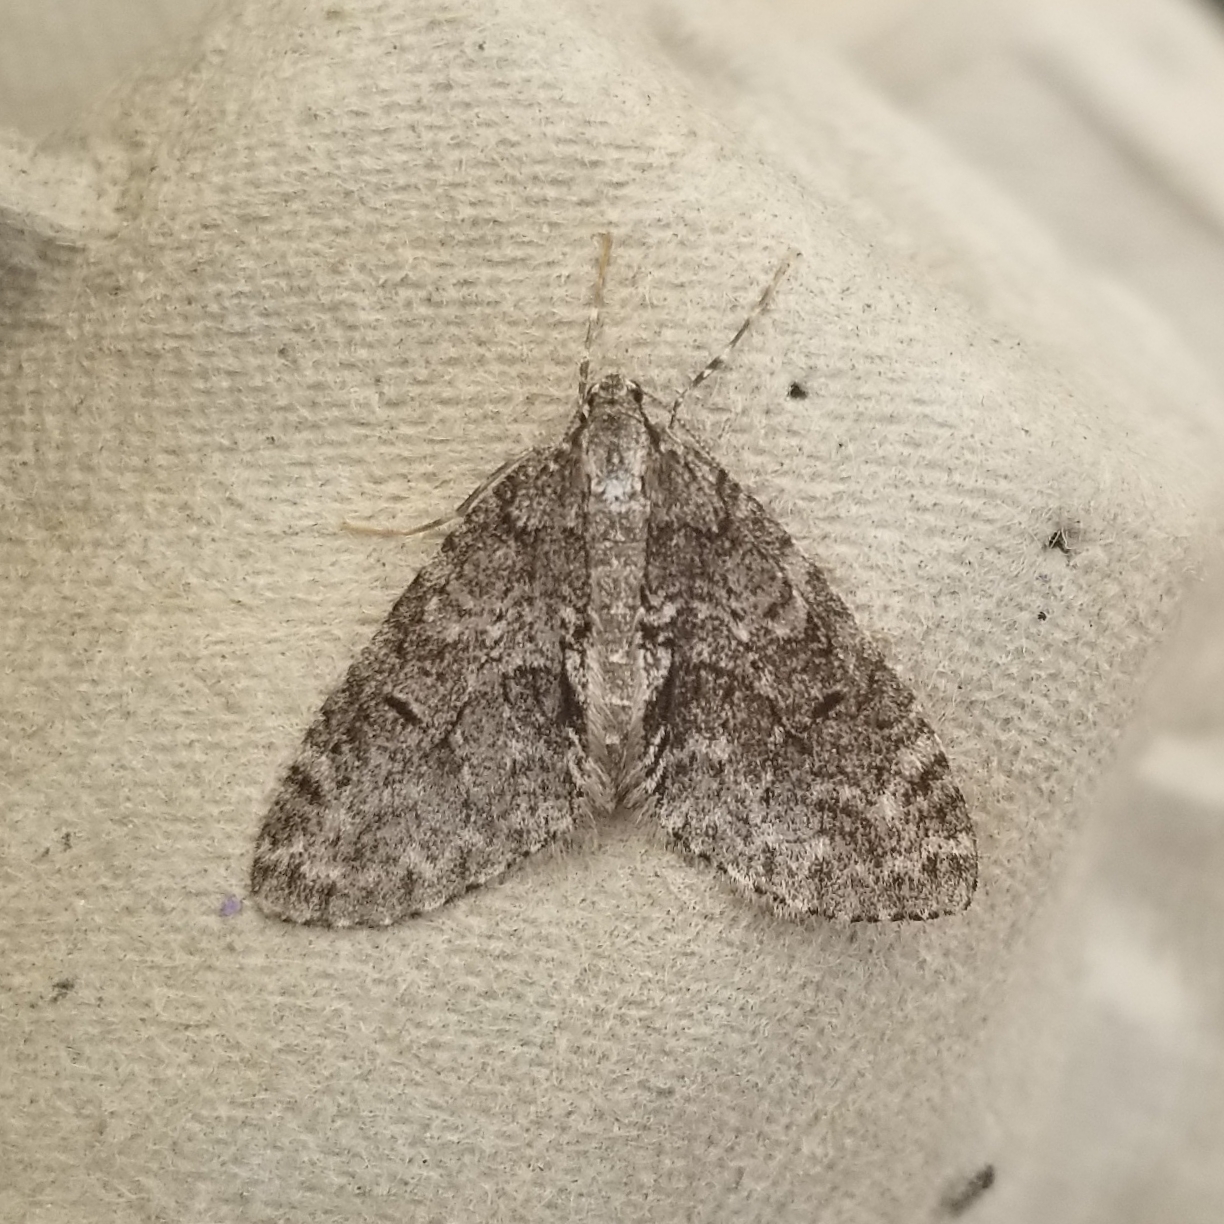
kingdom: Animalia
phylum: Arthropoda
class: Insecta
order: Lepidoptera
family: Geometridae
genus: Cladara
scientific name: Cladara limitaria
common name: Mottled gray carpet
